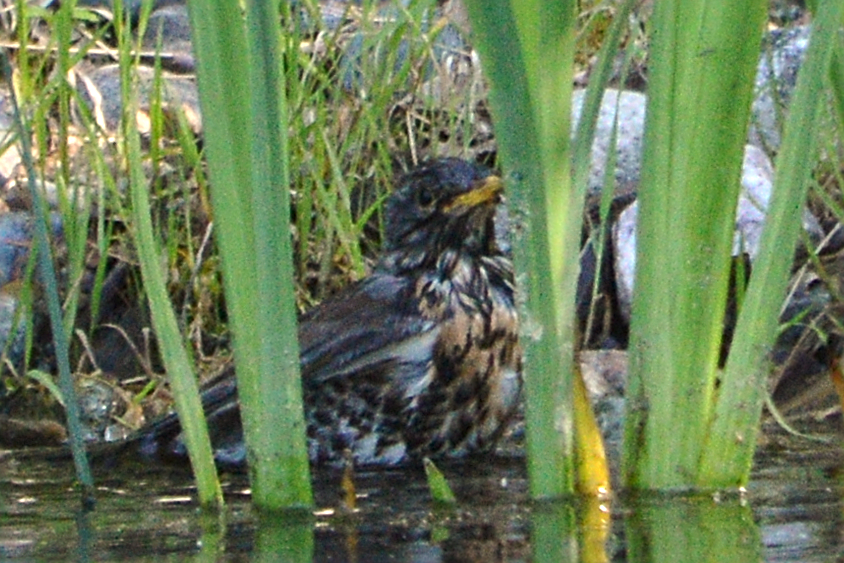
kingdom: Animalia
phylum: Chordata
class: Aves
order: Passeriformes
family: Turdidae
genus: Turdus
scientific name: Turdus pilaris
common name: Fieldfare
